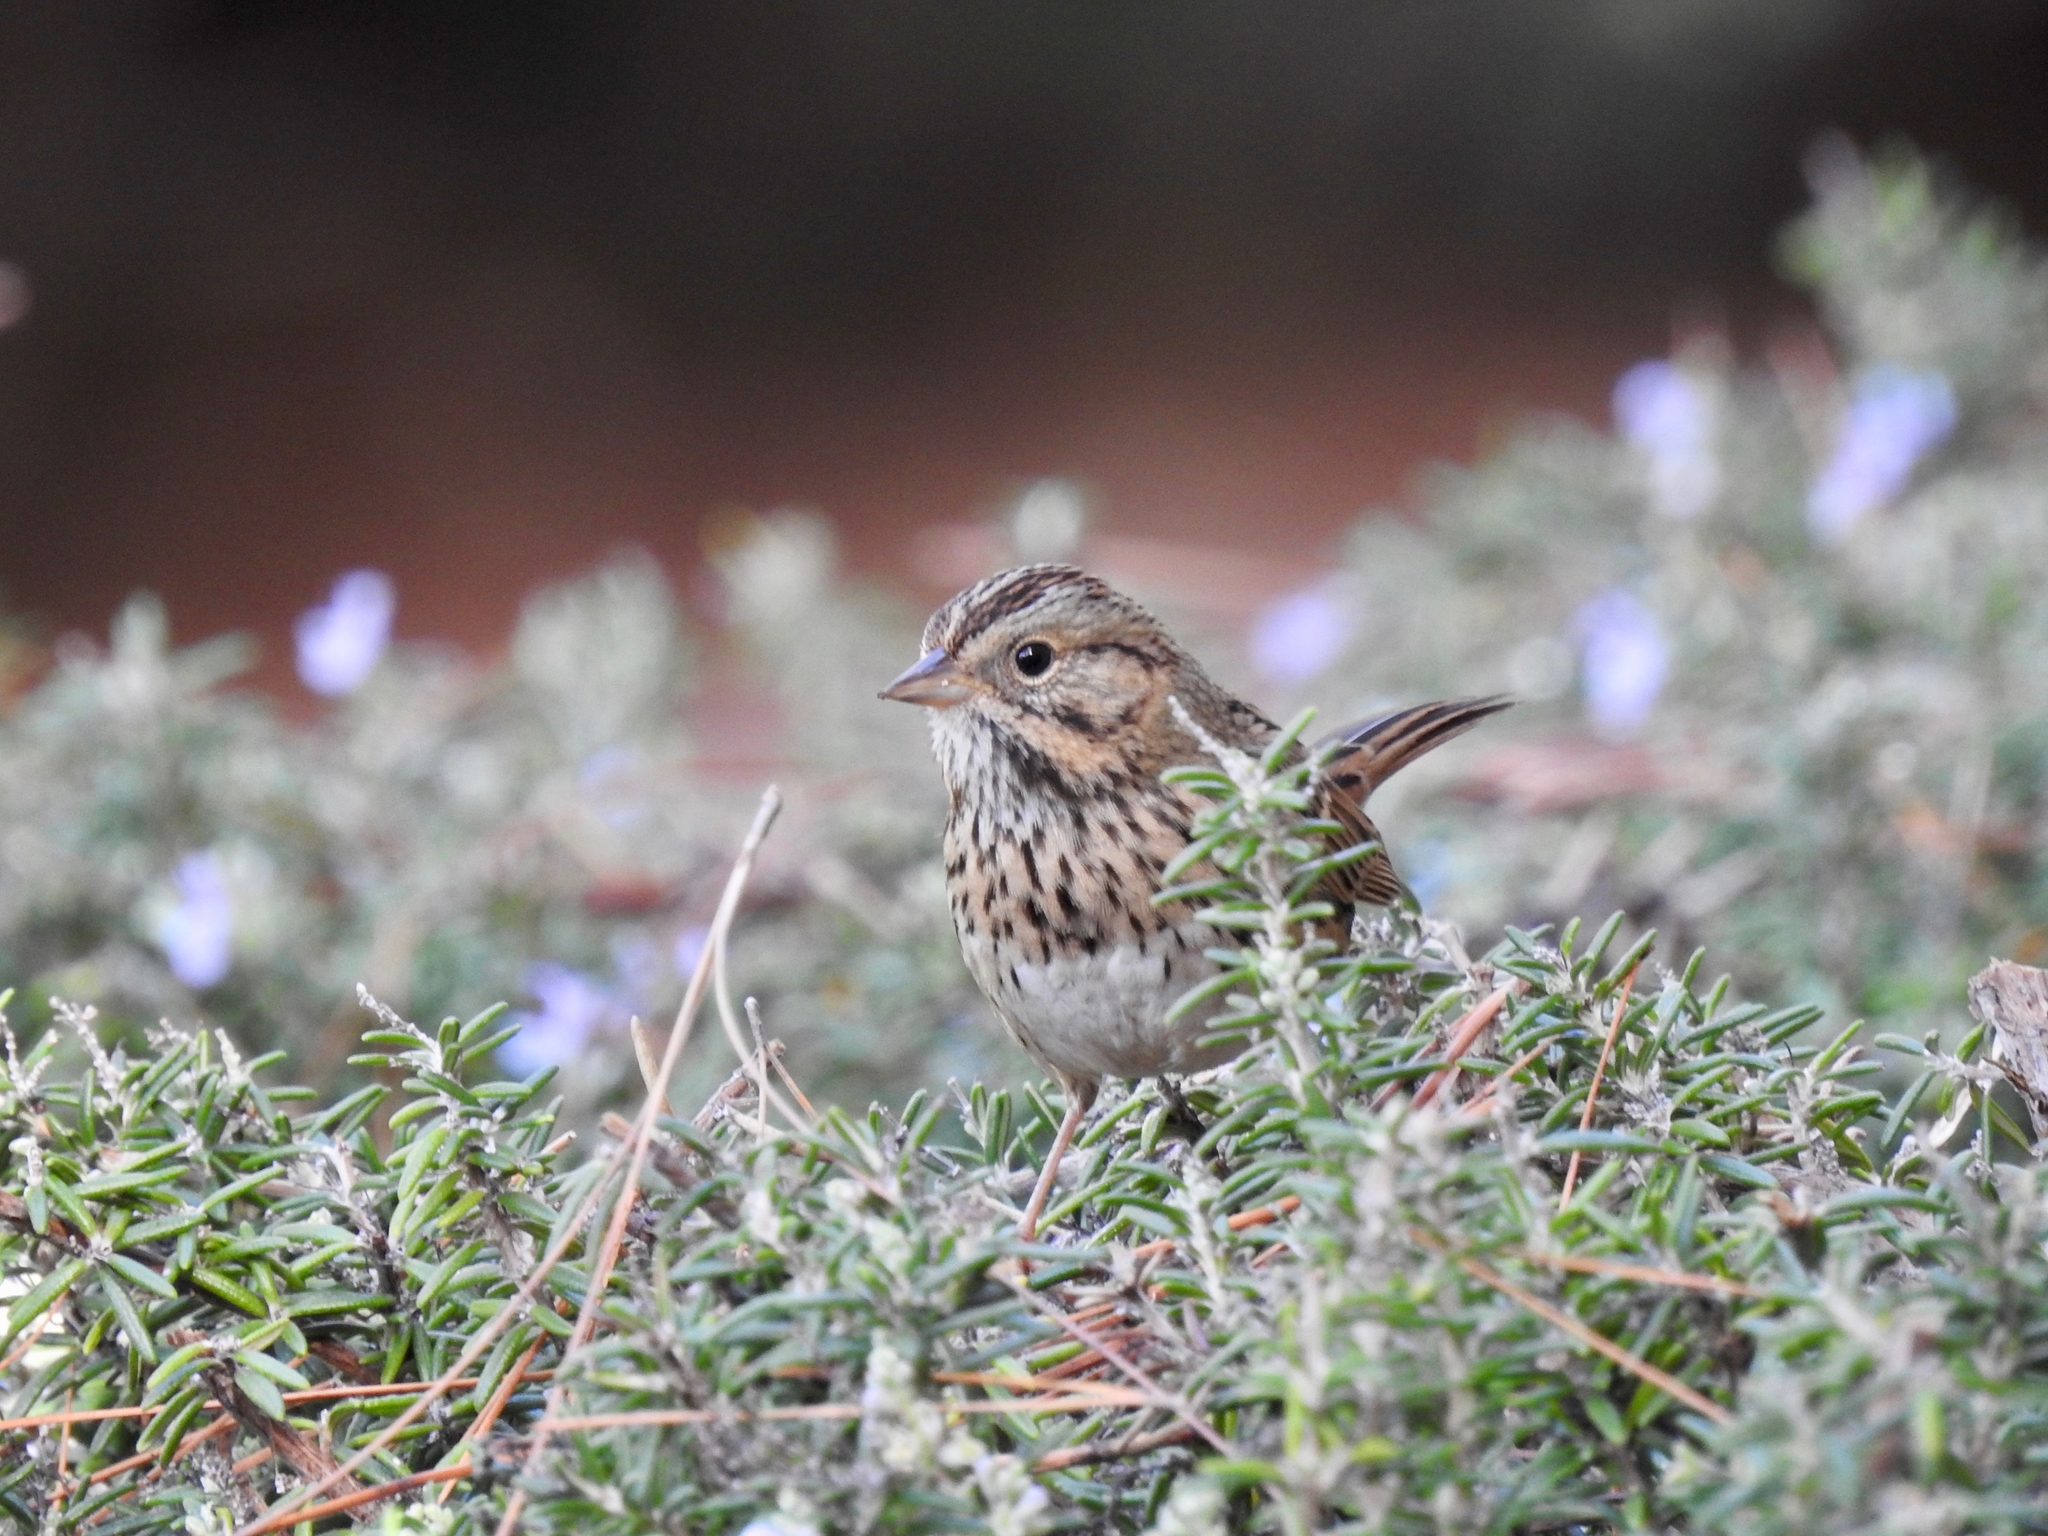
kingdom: Animalia
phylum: Chordata
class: Aves
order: Passeriformes
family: Passerellidae
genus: Melospiza
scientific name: Melospiza lincolnii
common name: Lincoln's sparrow
